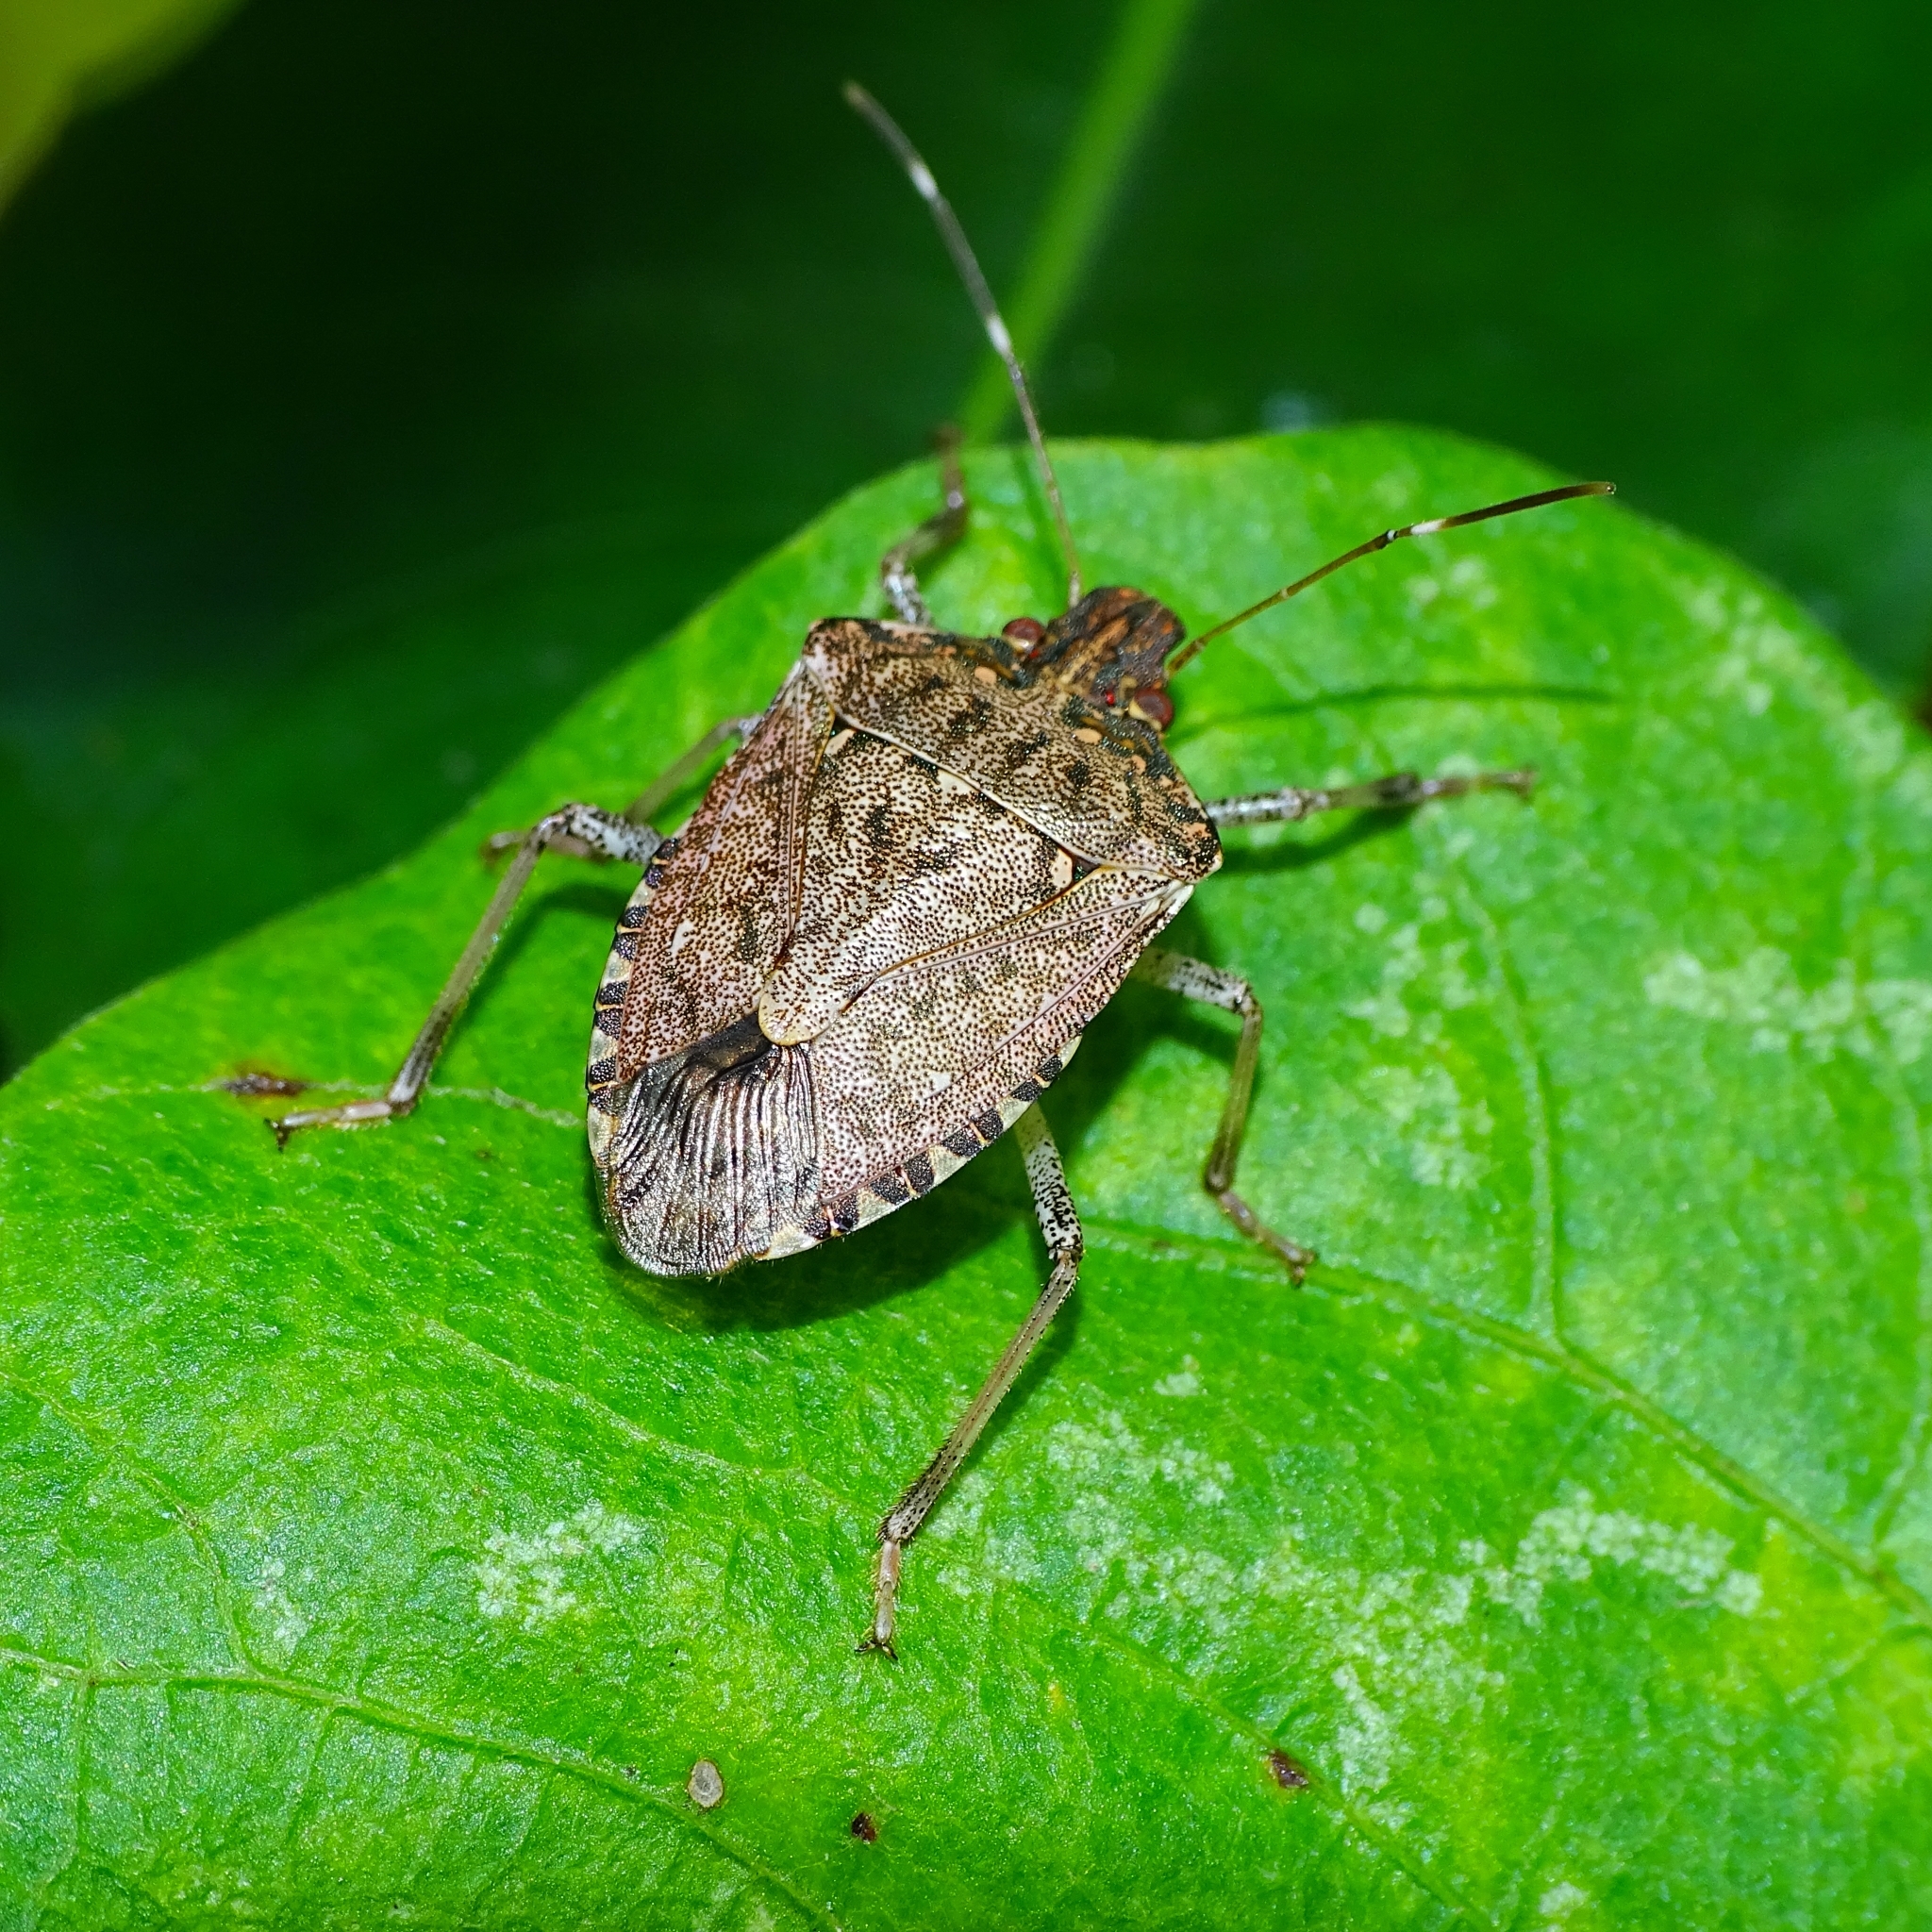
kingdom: Animalia
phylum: Arthropoda
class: Insecta
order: Hemiptera
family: Pentatomidae
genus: Halyomorpha
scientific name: Halyomorpha picus
